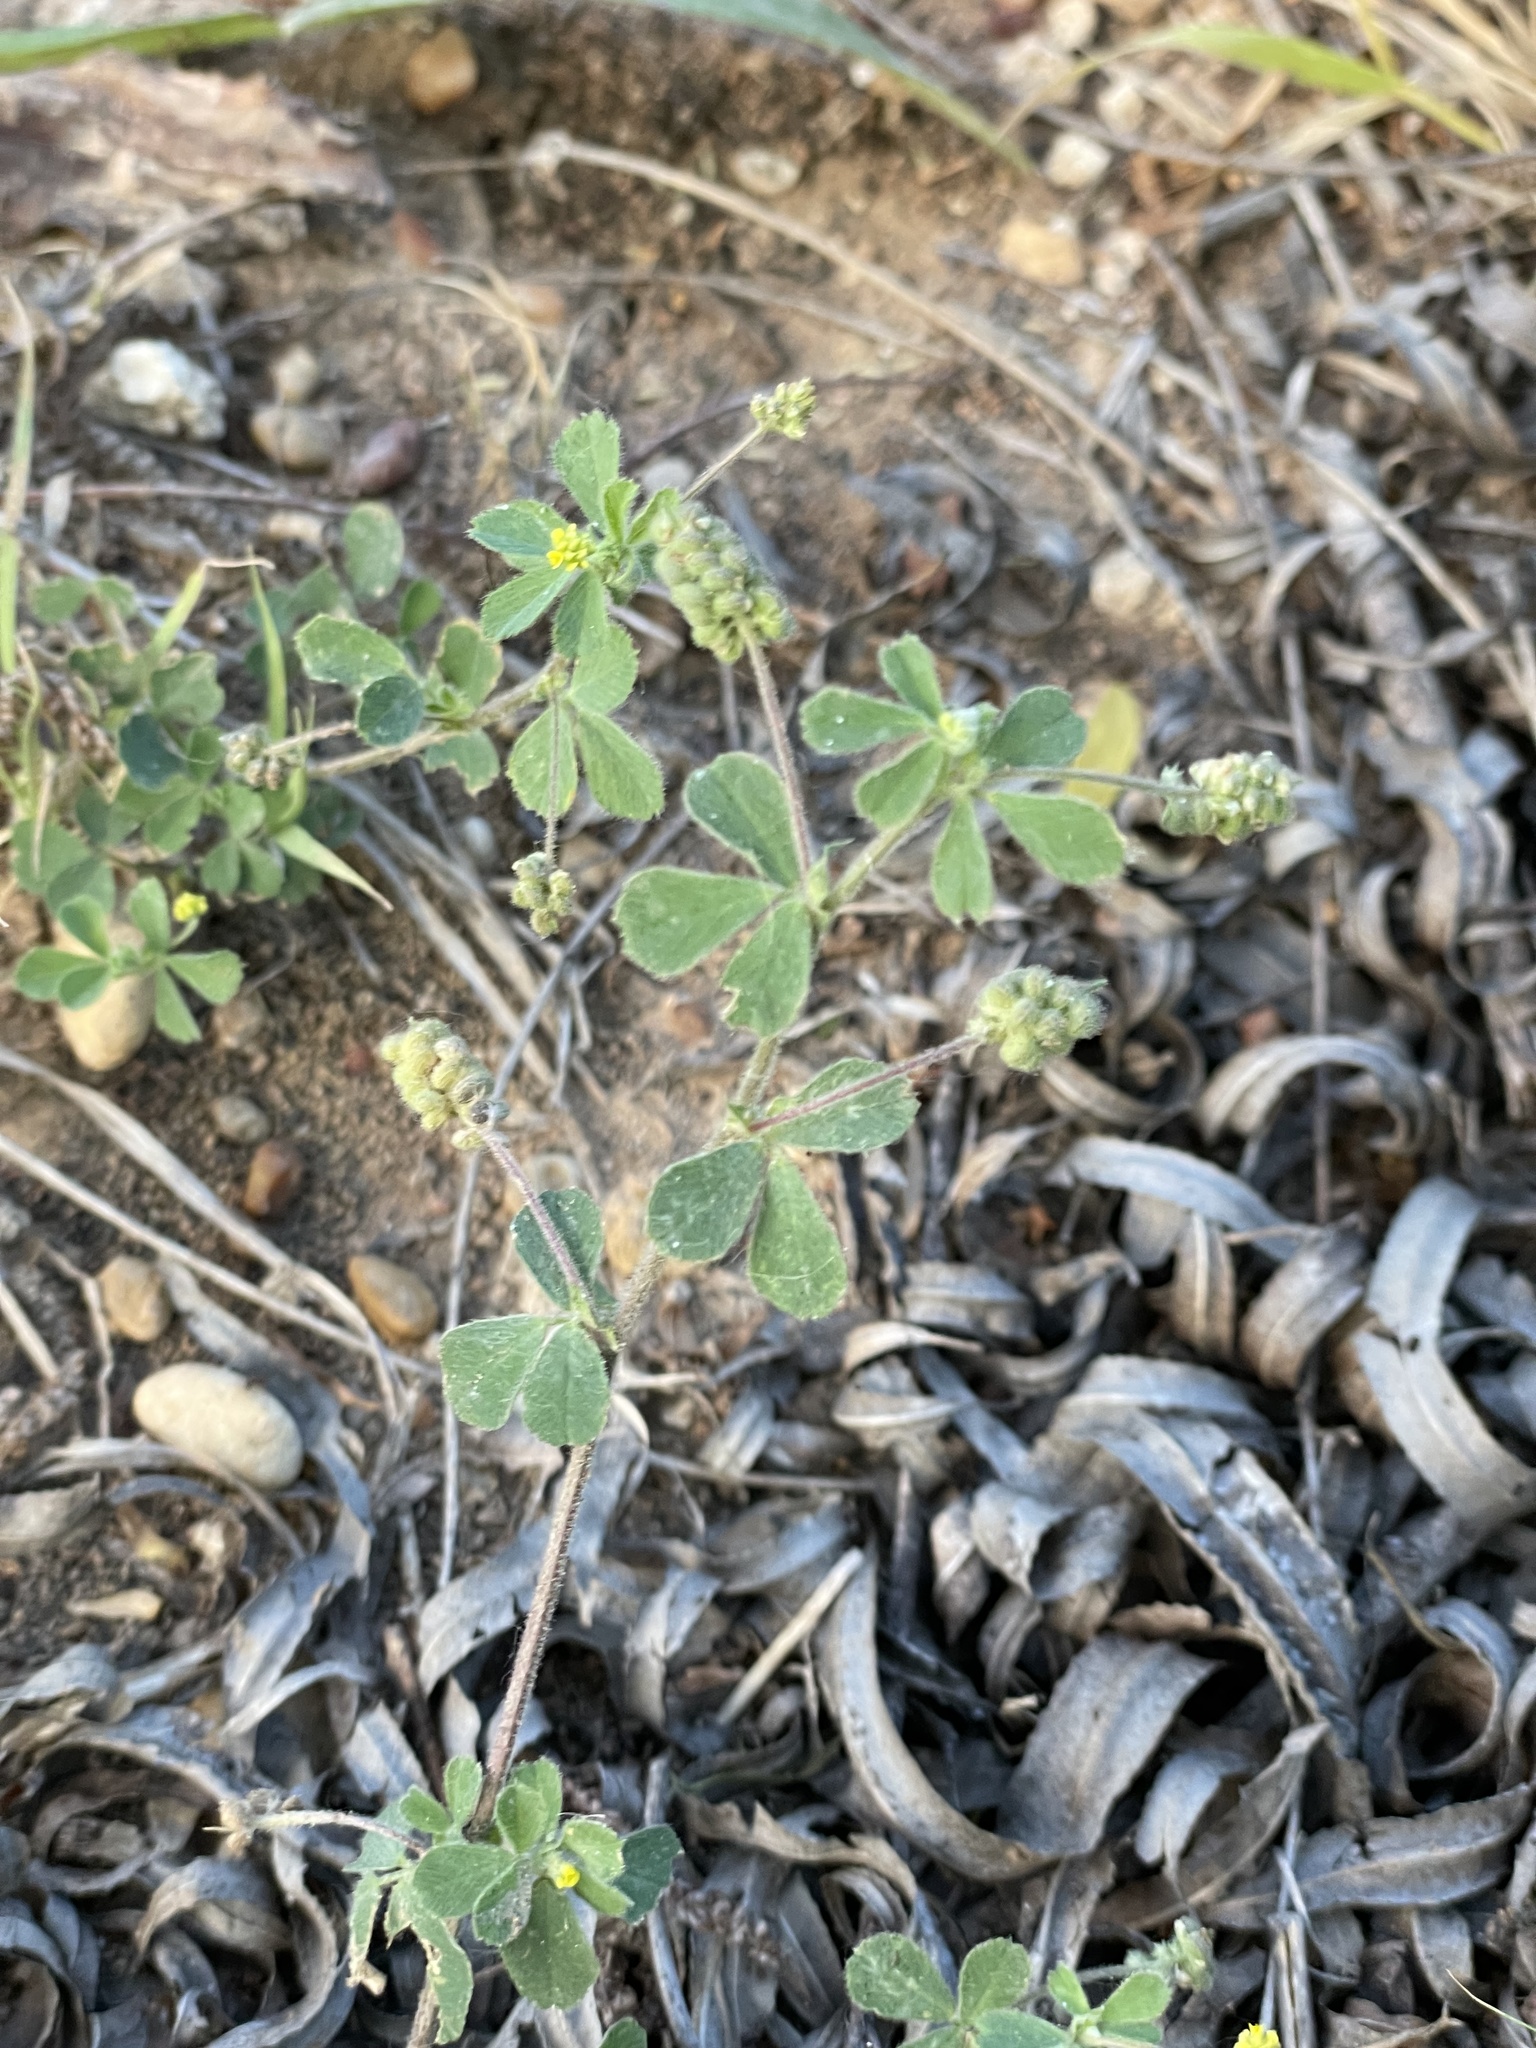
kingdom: Plantae
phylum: Tracheophyta
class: Magnoliopsida
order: Fabales
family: Fabaceae
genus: Medicago
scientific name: Medicago lupulina
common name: Black medick
